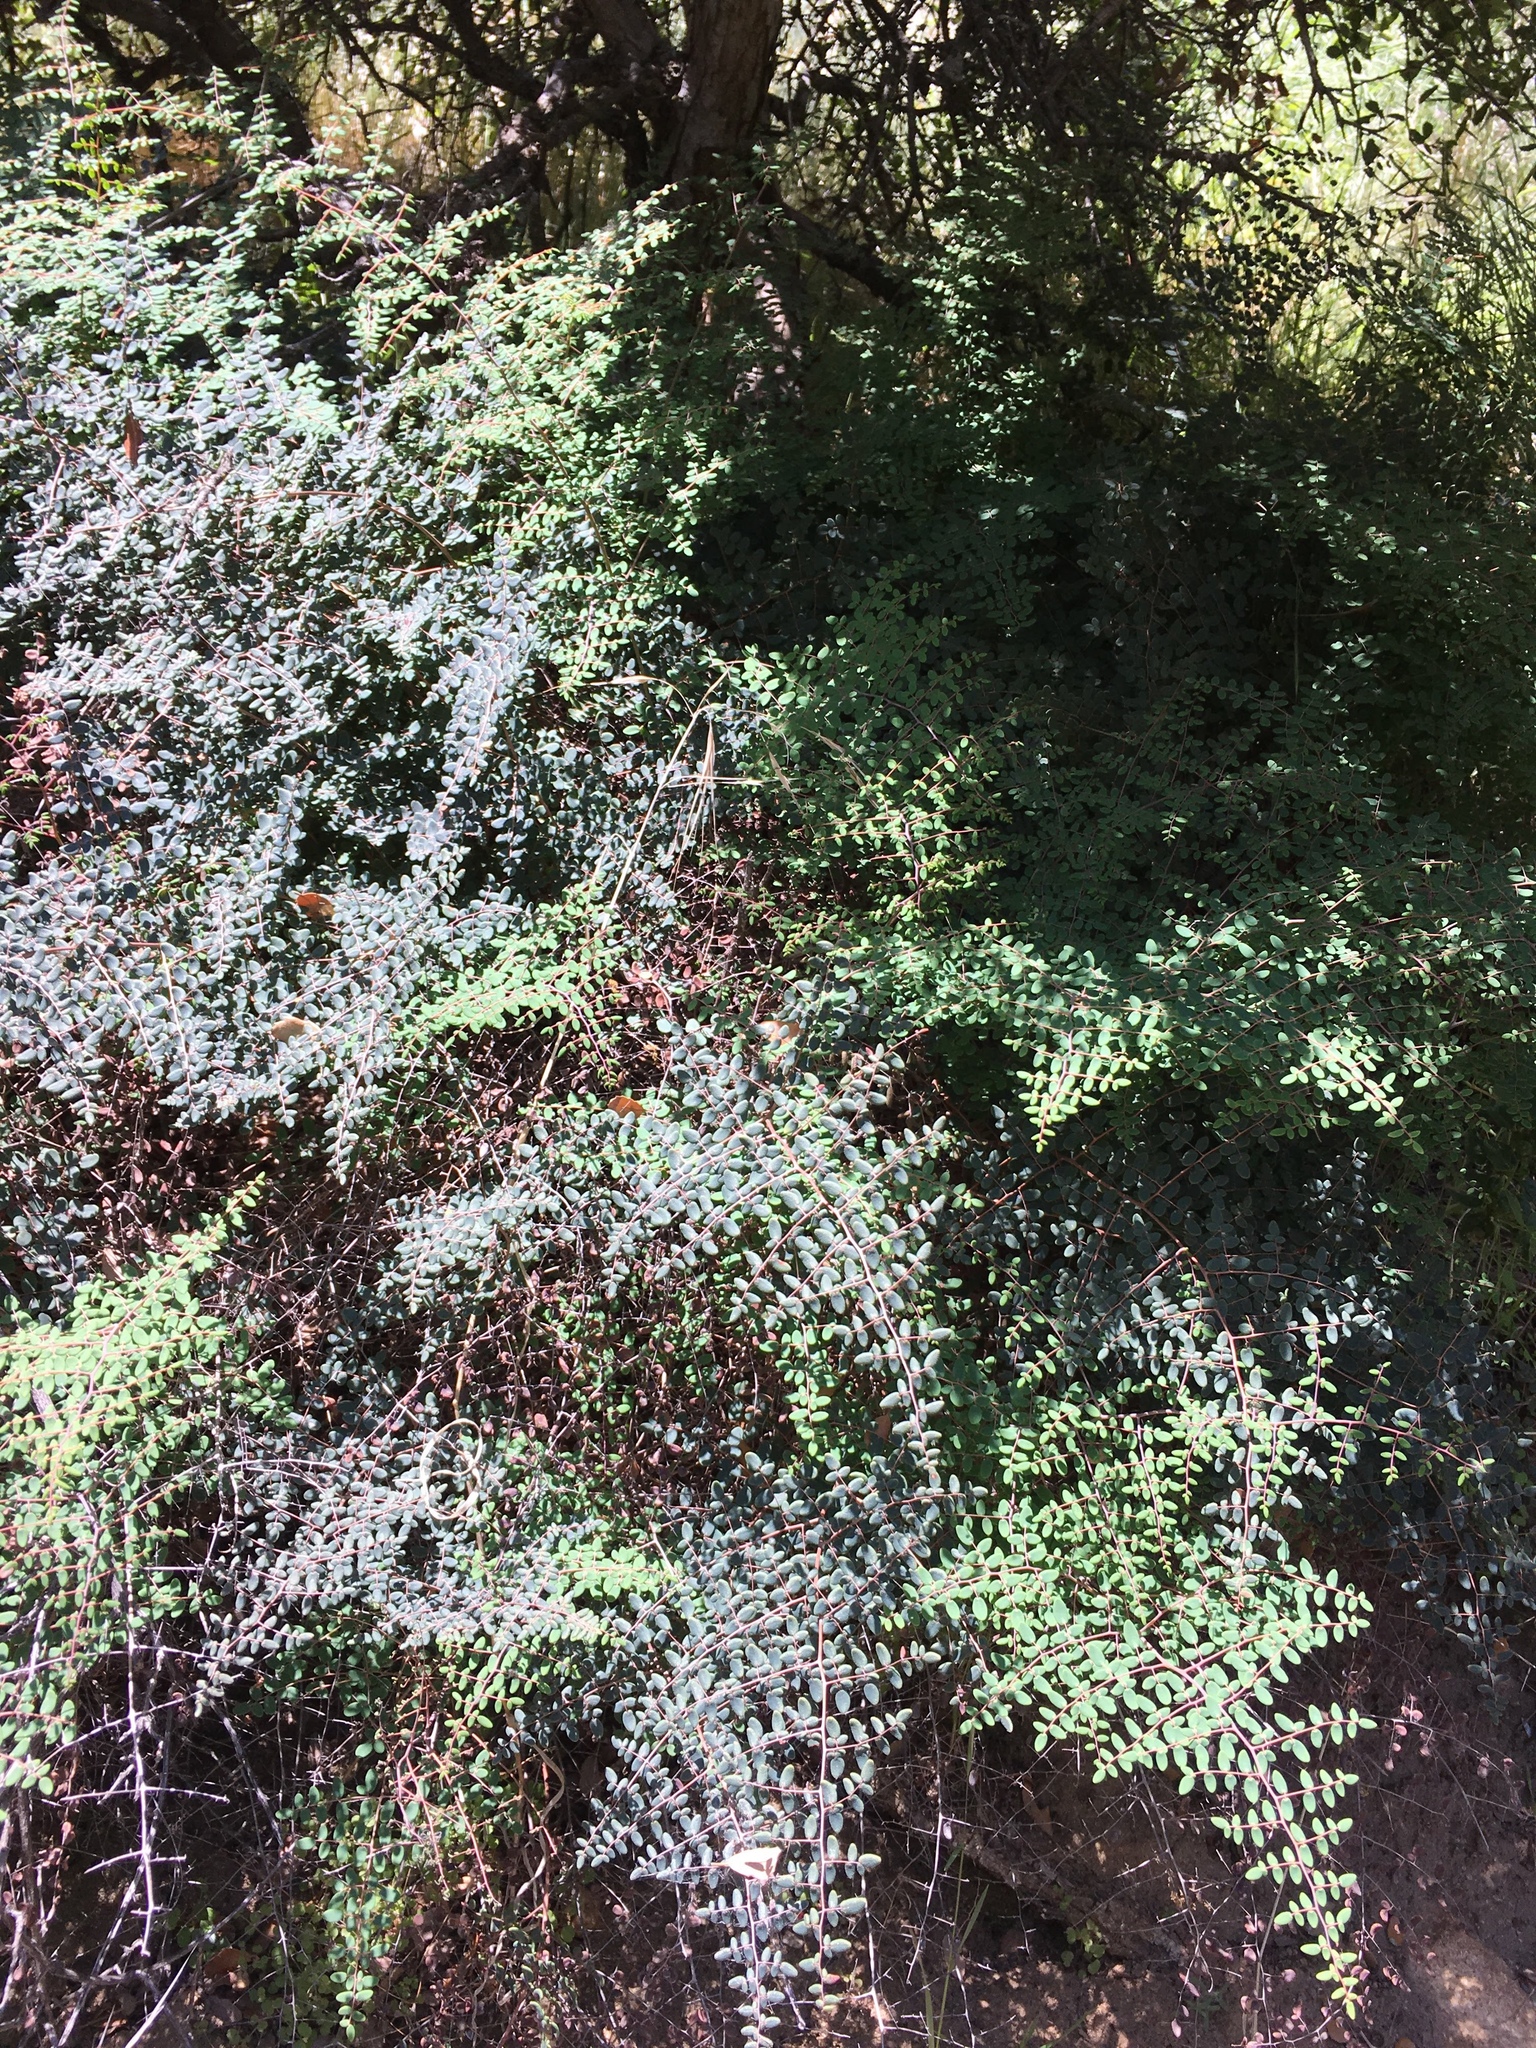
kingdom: Plantae
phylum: Tracheophyta
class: Polypodiopsida
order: Polypodiales
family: Pteridaceae
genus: Pellaea
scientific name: Pellaea andromedifolia
